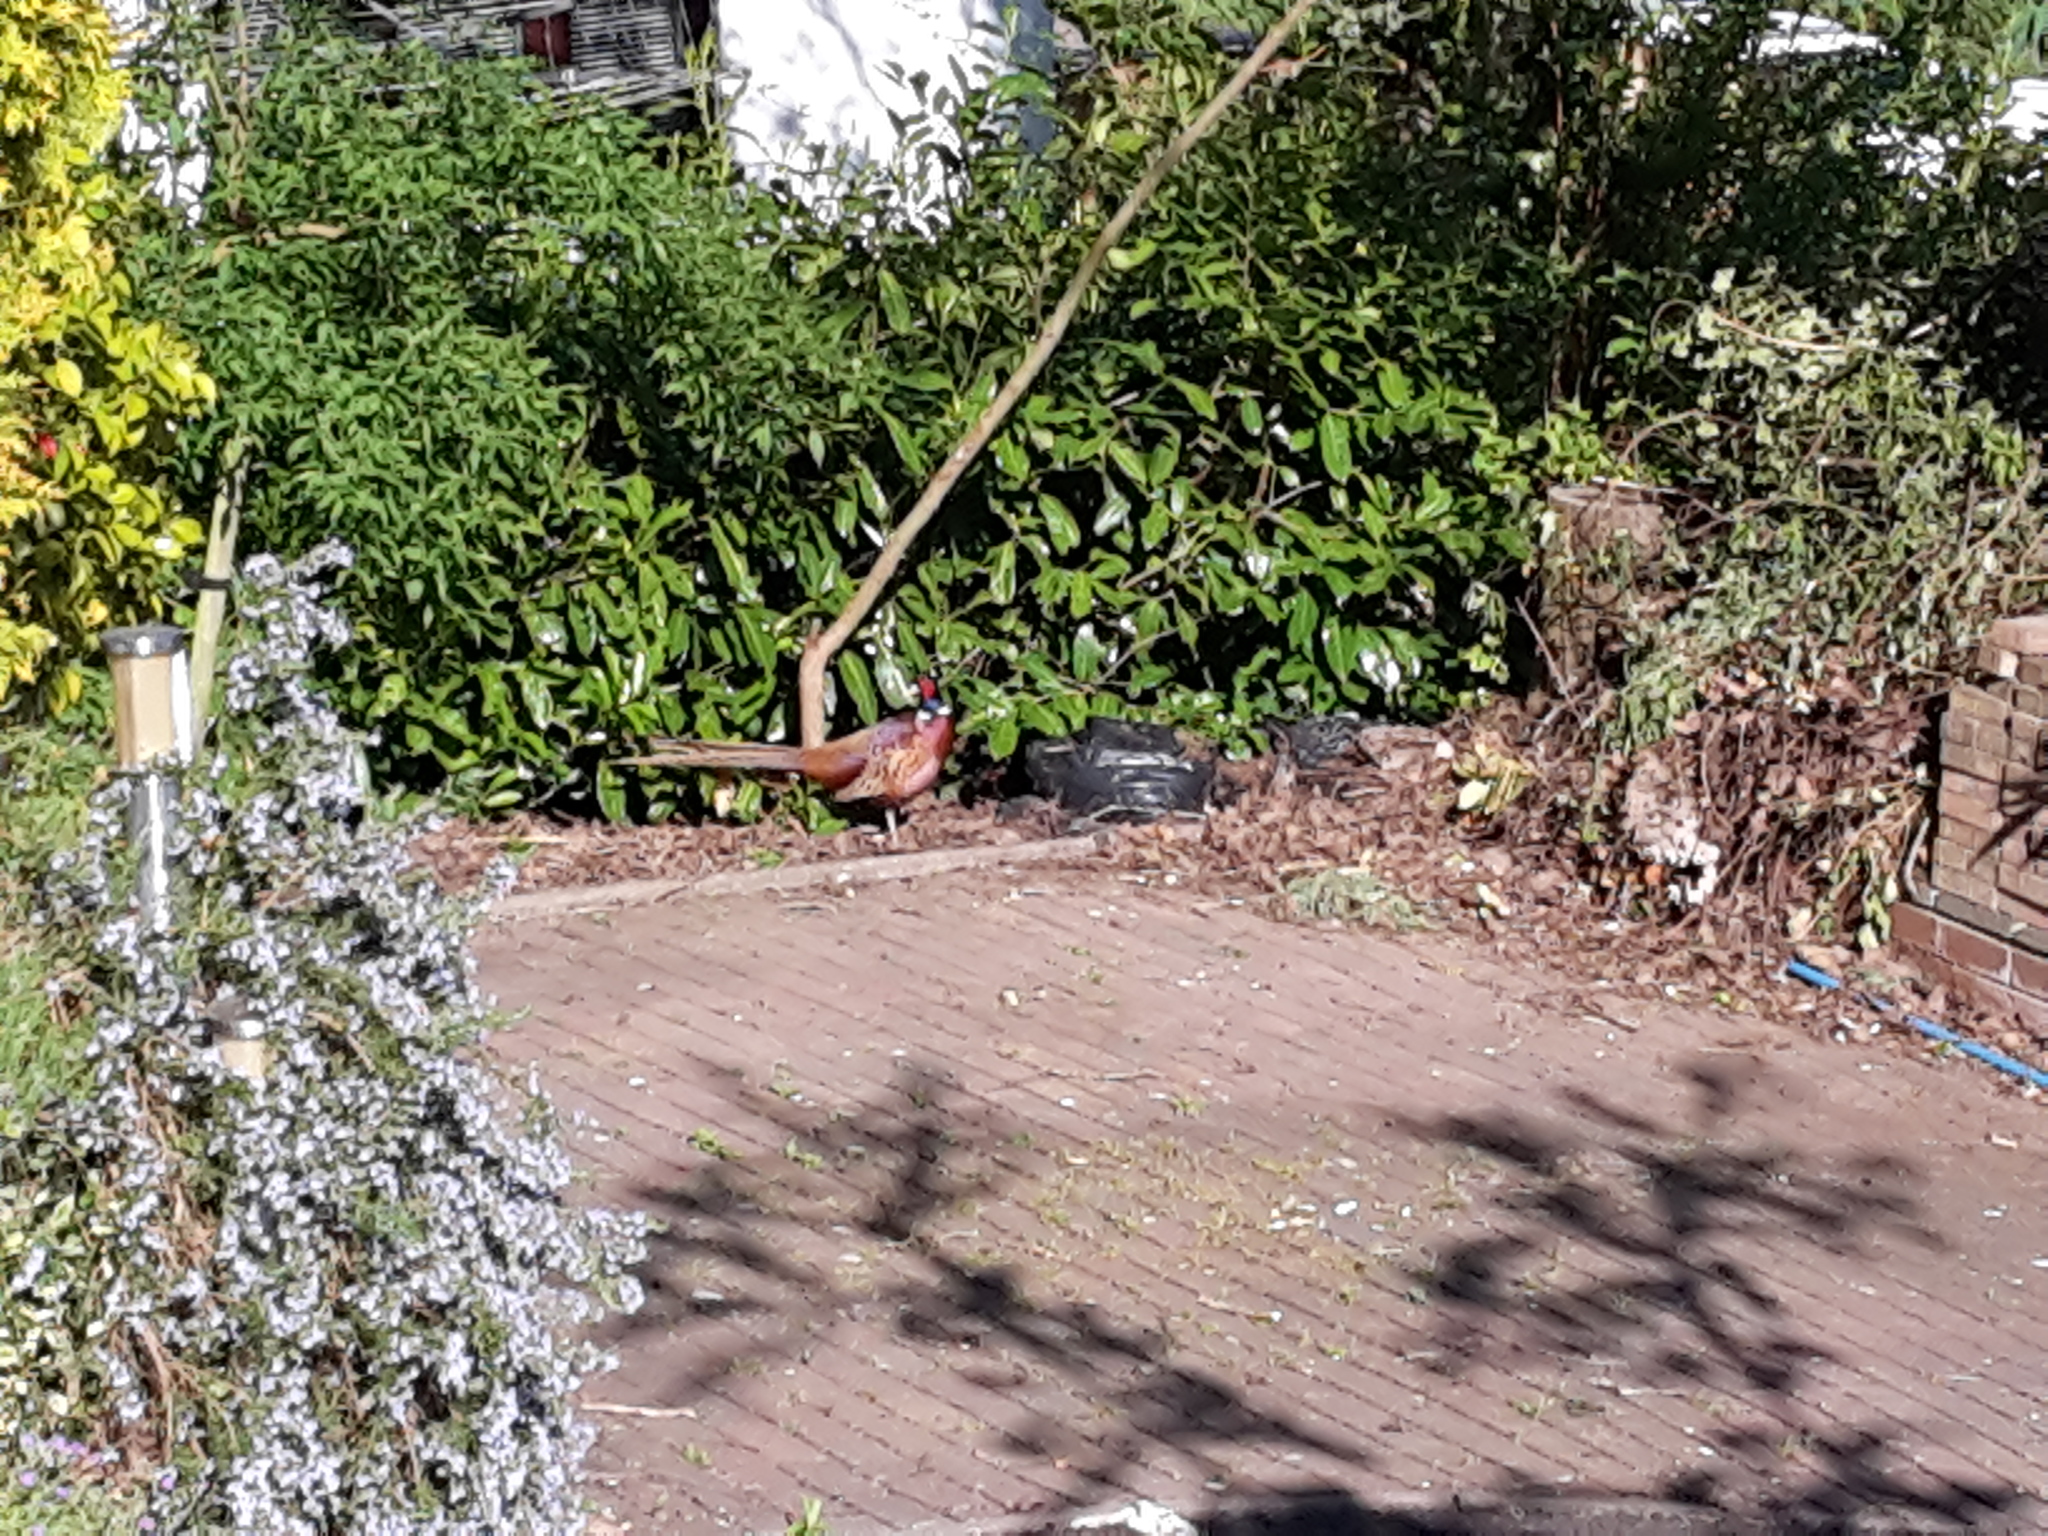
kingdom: Animalia
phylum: Chordata
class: Aves
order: Galliformes
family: Phasianidae
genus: Phasianus
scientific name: Phasianus colchicus
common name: Common pheasant
